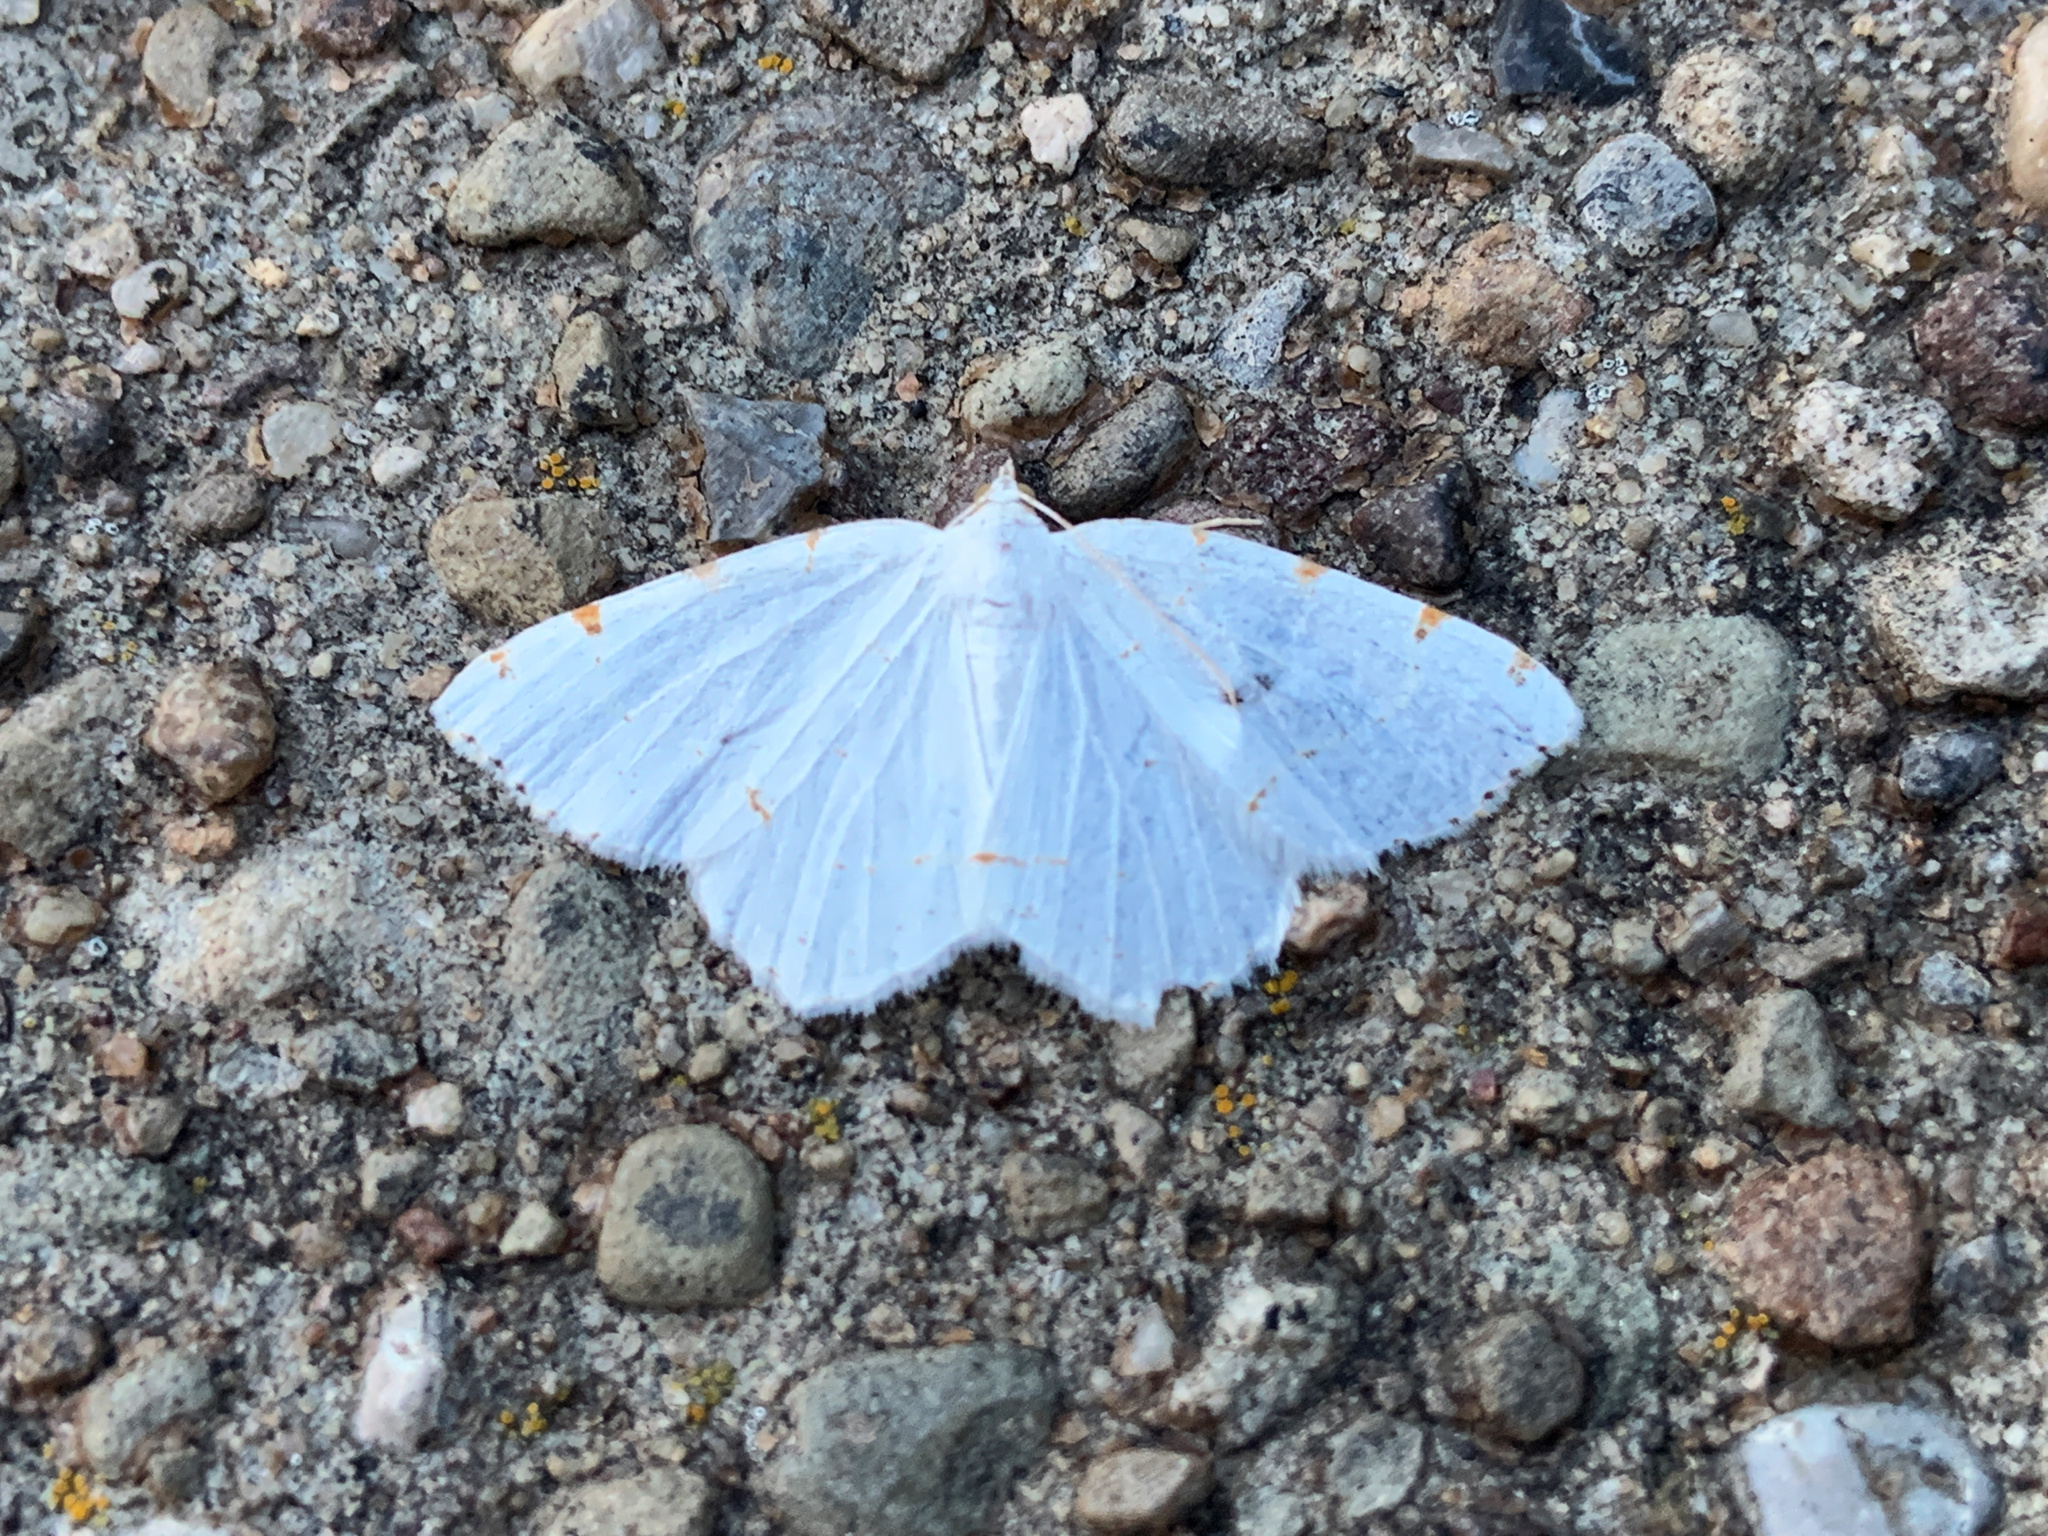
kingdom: Animalia
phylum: Arthropoda
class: Insecta
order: Lepidoptera
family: Geometridae
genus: Macaria
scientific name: Macaria pustularia
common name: Lesser maple spanworm moth
